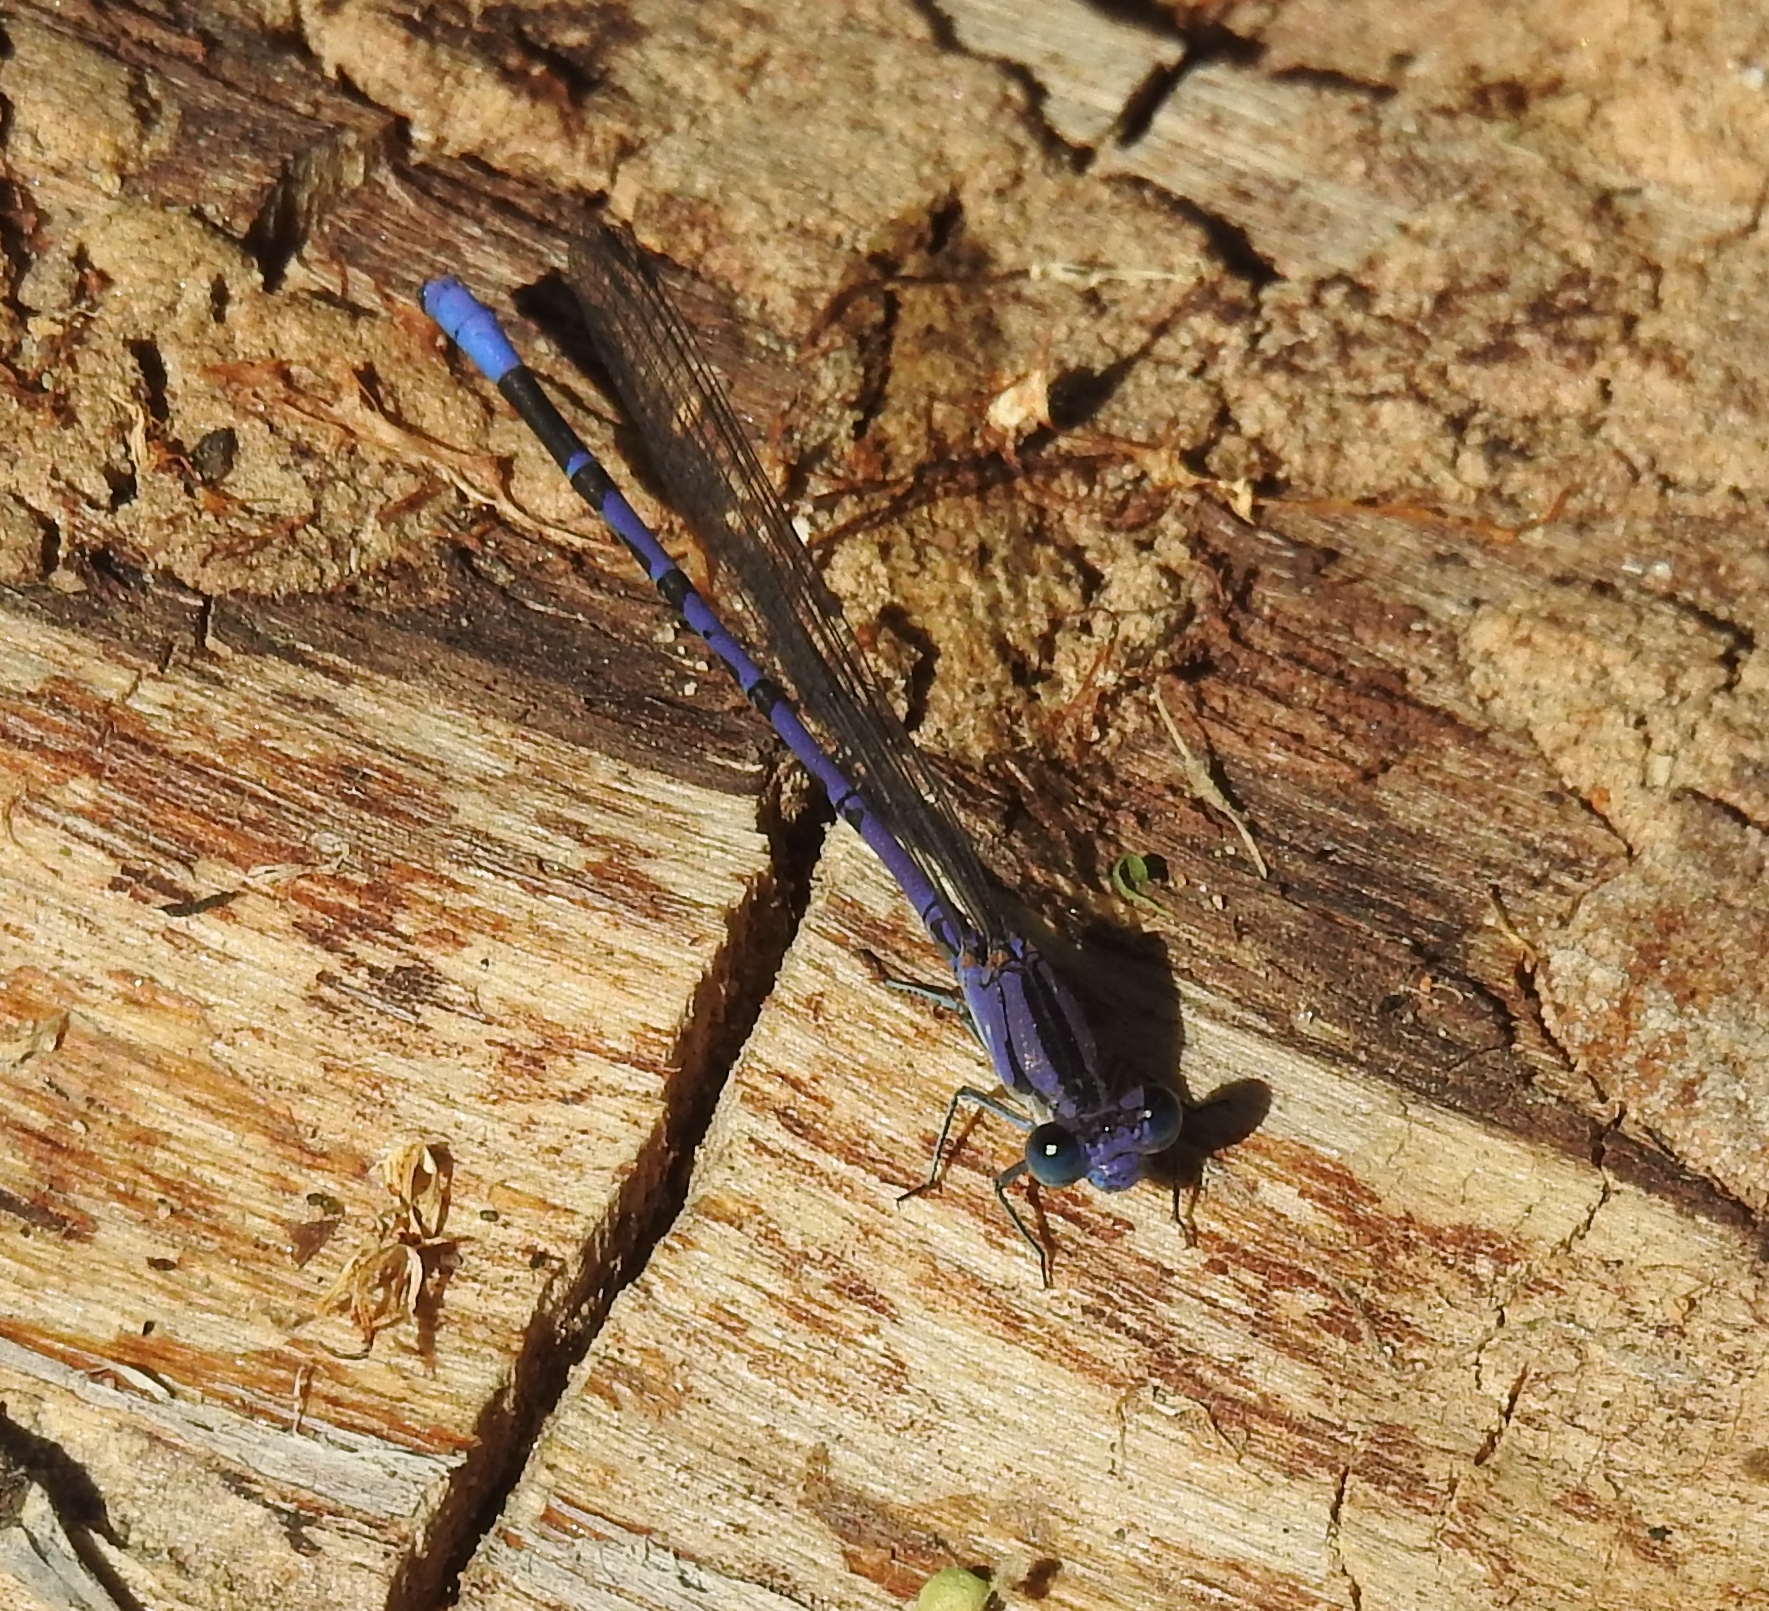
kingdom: Animalia
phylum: Arthropoda
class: Insecta
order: Odonata
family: Coenagrionidae
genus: Argia
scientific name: Argia funebris
